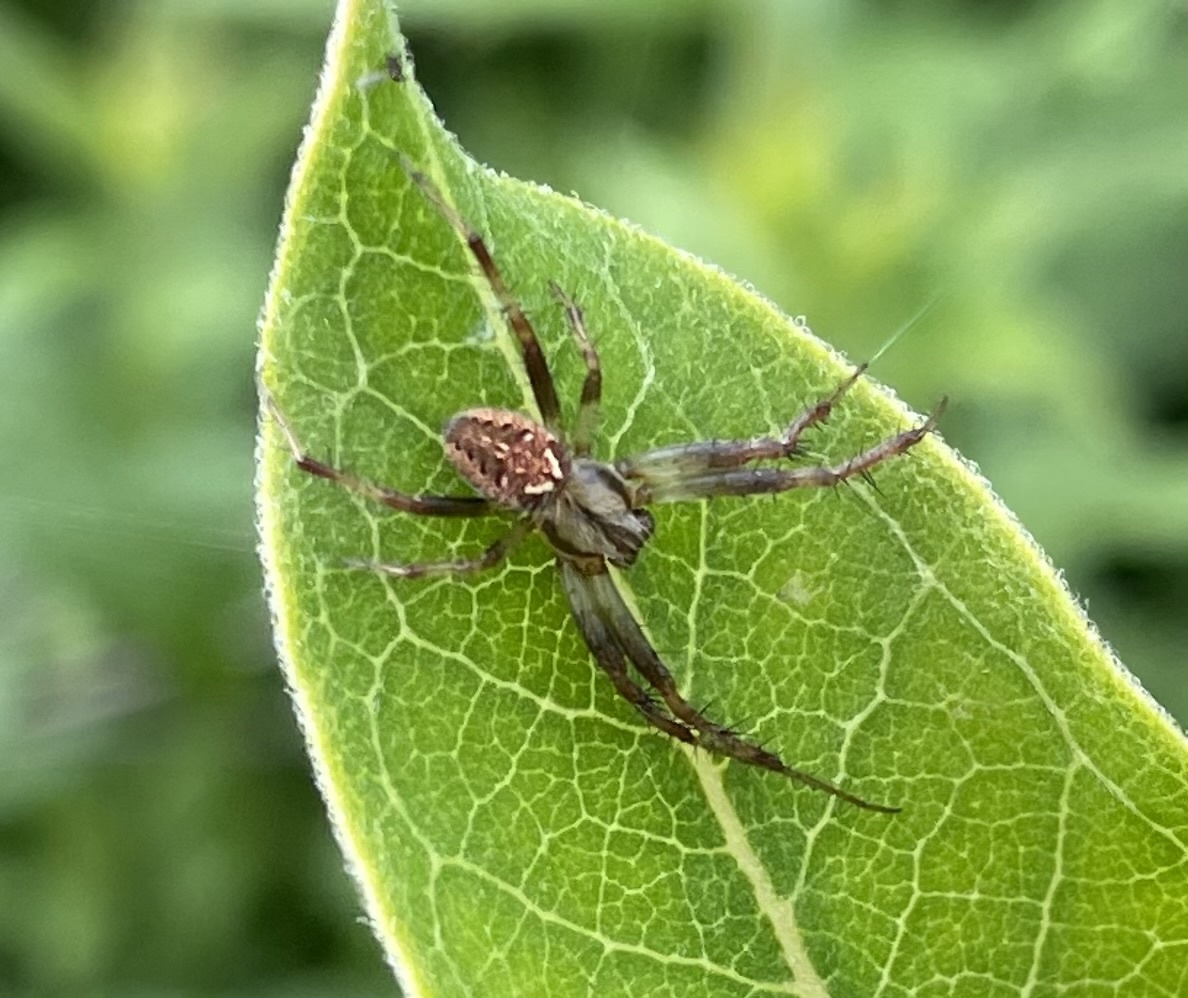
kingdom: Animalia
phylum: Arthropoda
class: Arachnida
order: Araneae
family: Araneidae
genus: Neoscona
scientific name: Neoscona arabesca
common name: Orb weavers
